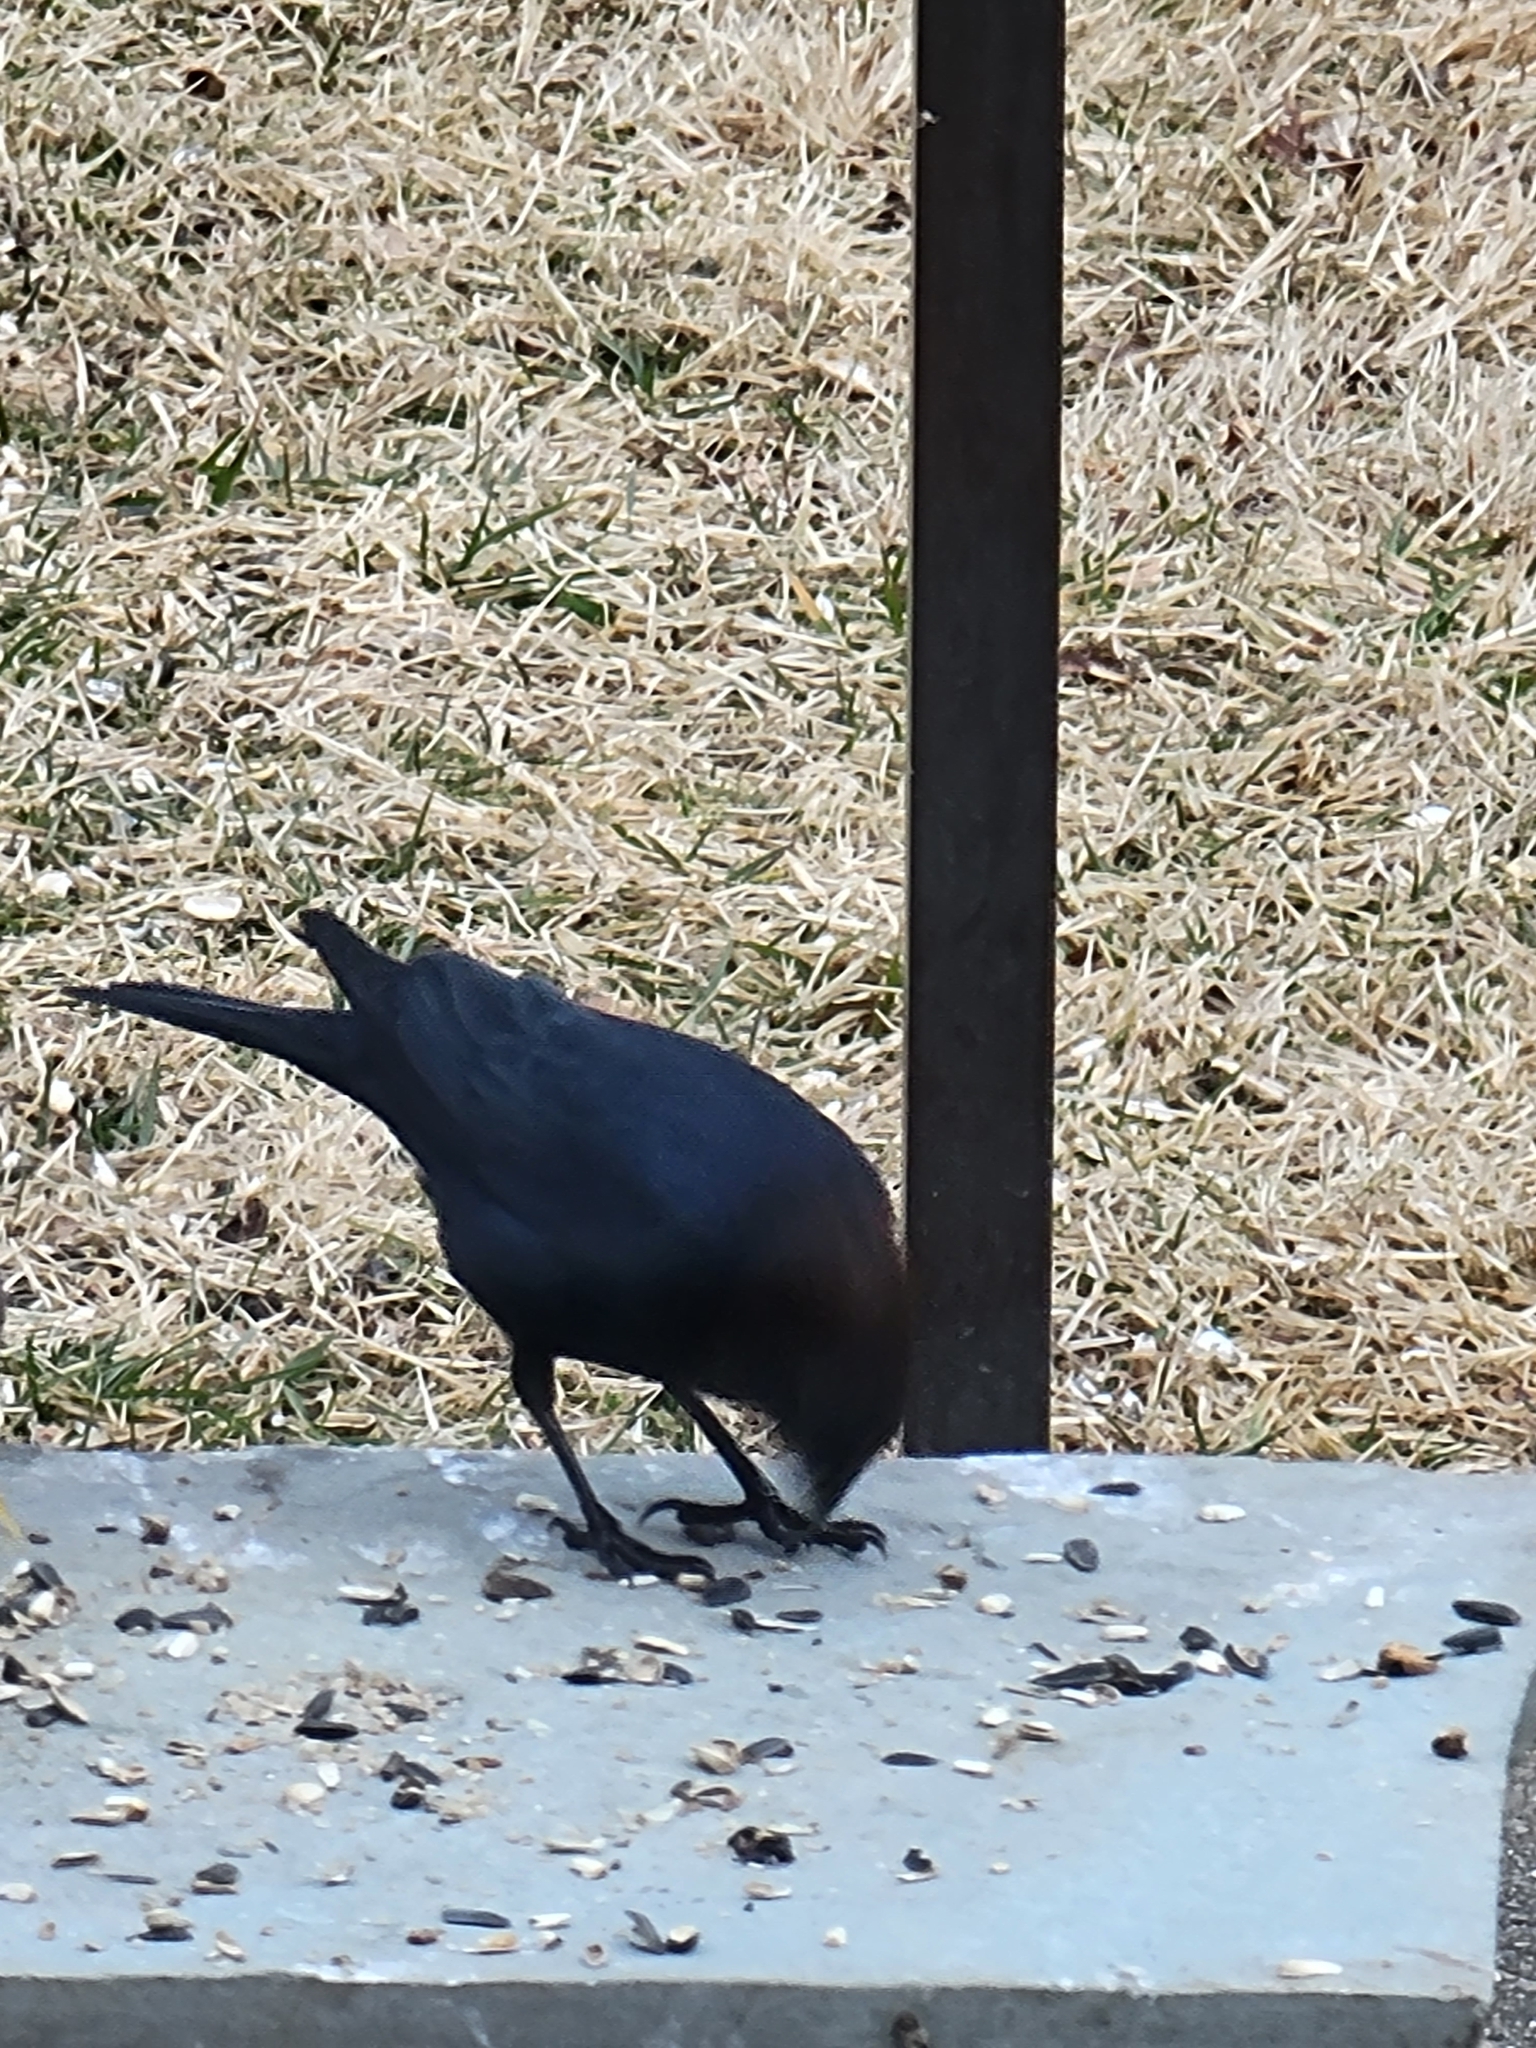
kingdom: Animalia
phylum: Chordata
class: Aves
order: Passeriformes
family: Icteridae
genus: Molothrus
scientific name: Molothrus ater
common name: Brown-headed cowbird
